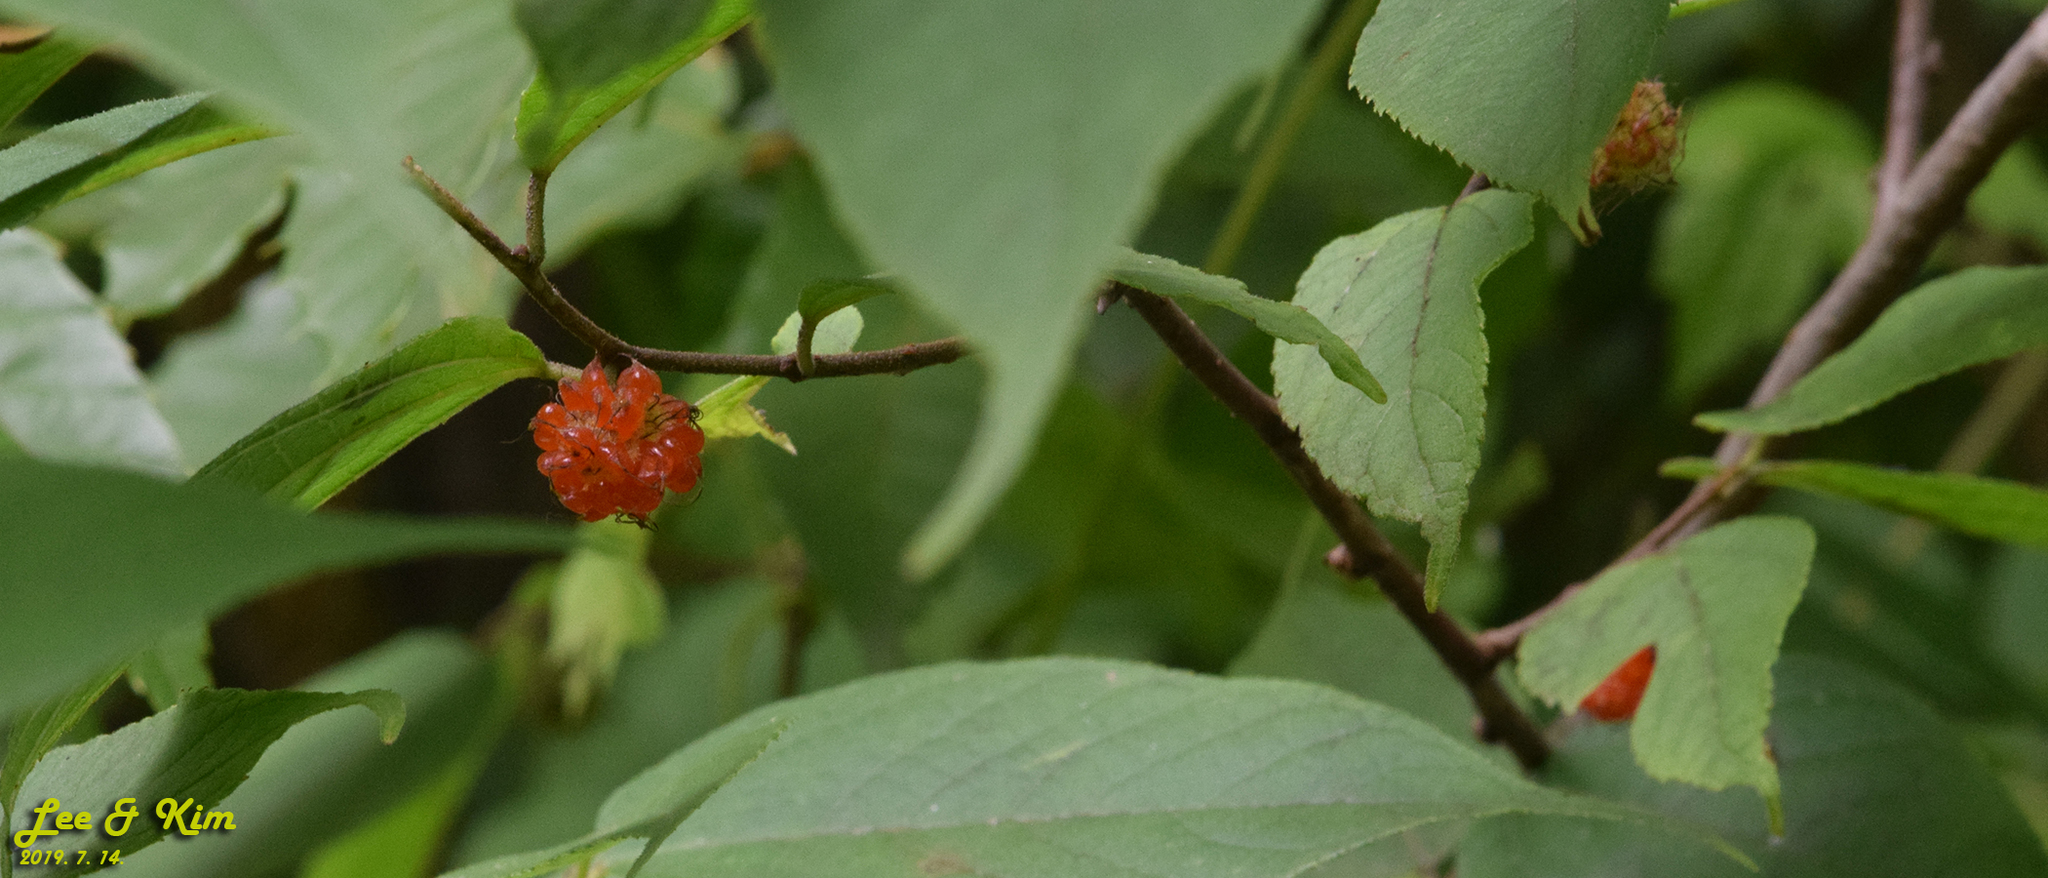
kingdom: Plantae
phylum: Tracheophyta
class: Magnoliopsida
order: Rosales
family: Moraceae
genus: Broussonetia
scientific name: Broussonetia papyrifera
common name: Paper mulberry
